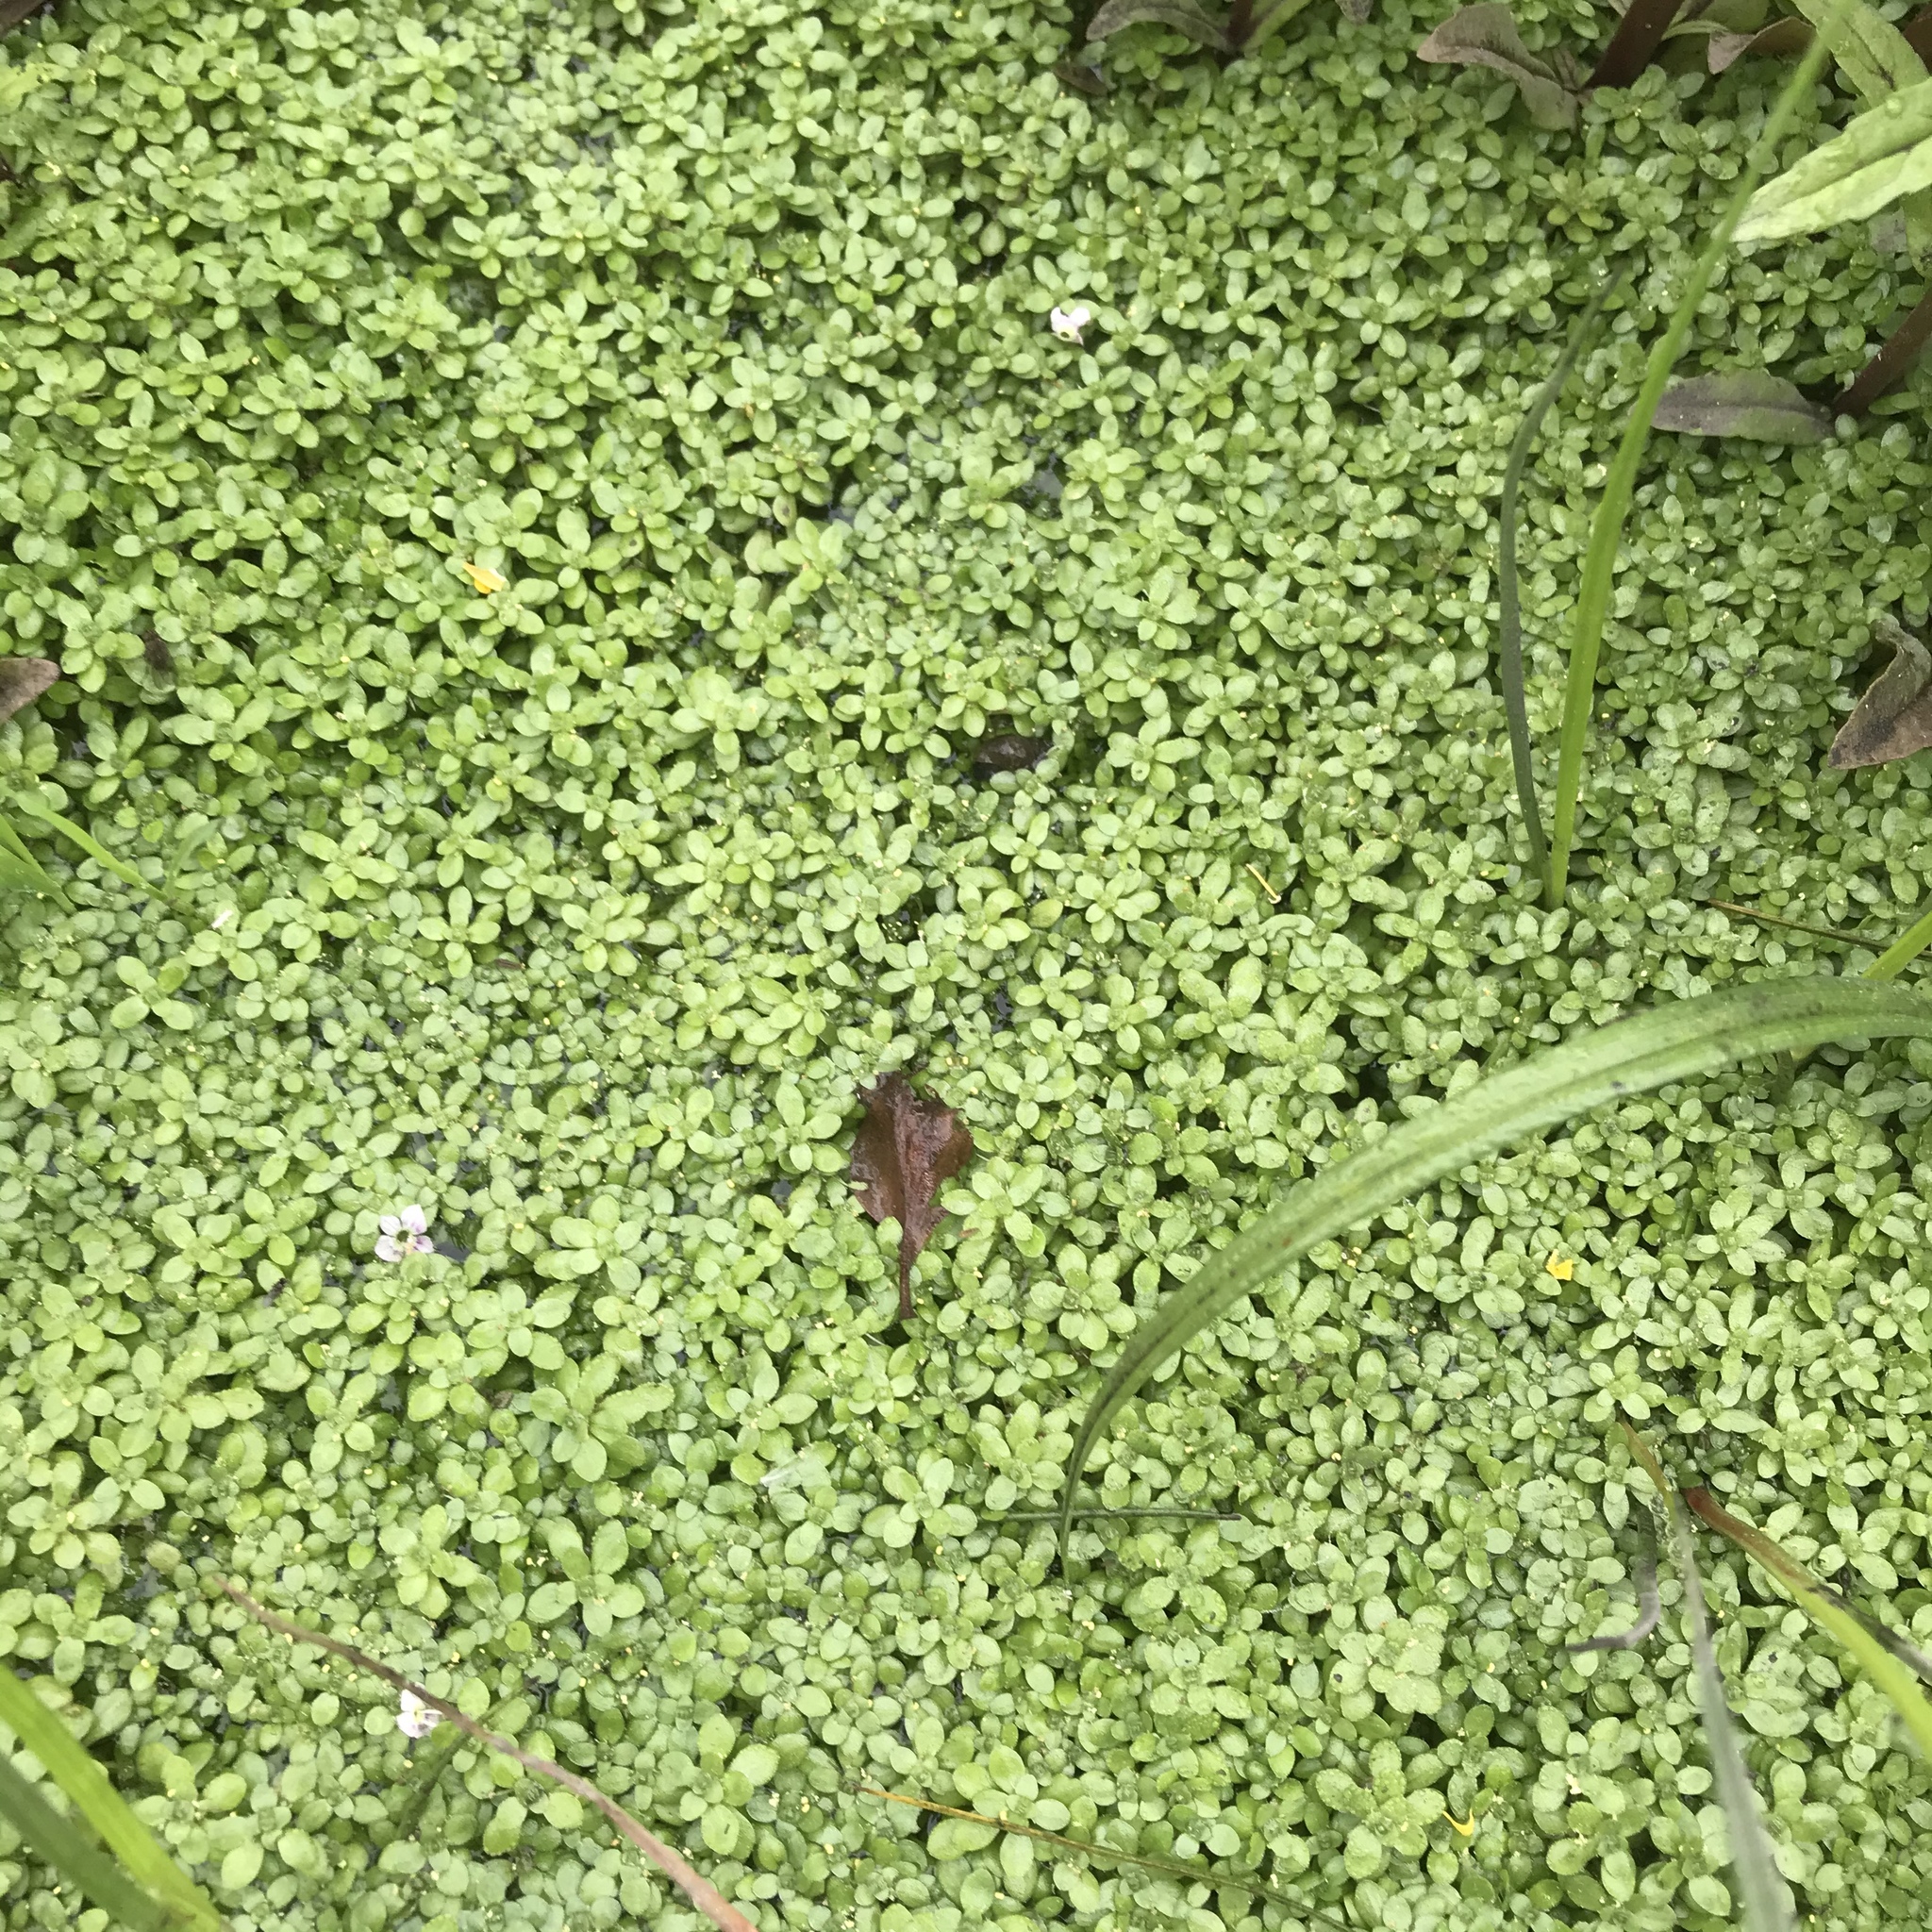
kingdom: Plantae
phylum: Tracheophyta
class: Liliopsida
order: Alismatales
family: Araceae
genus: Lemna
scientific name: Lemna minor
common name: Common duckweed
